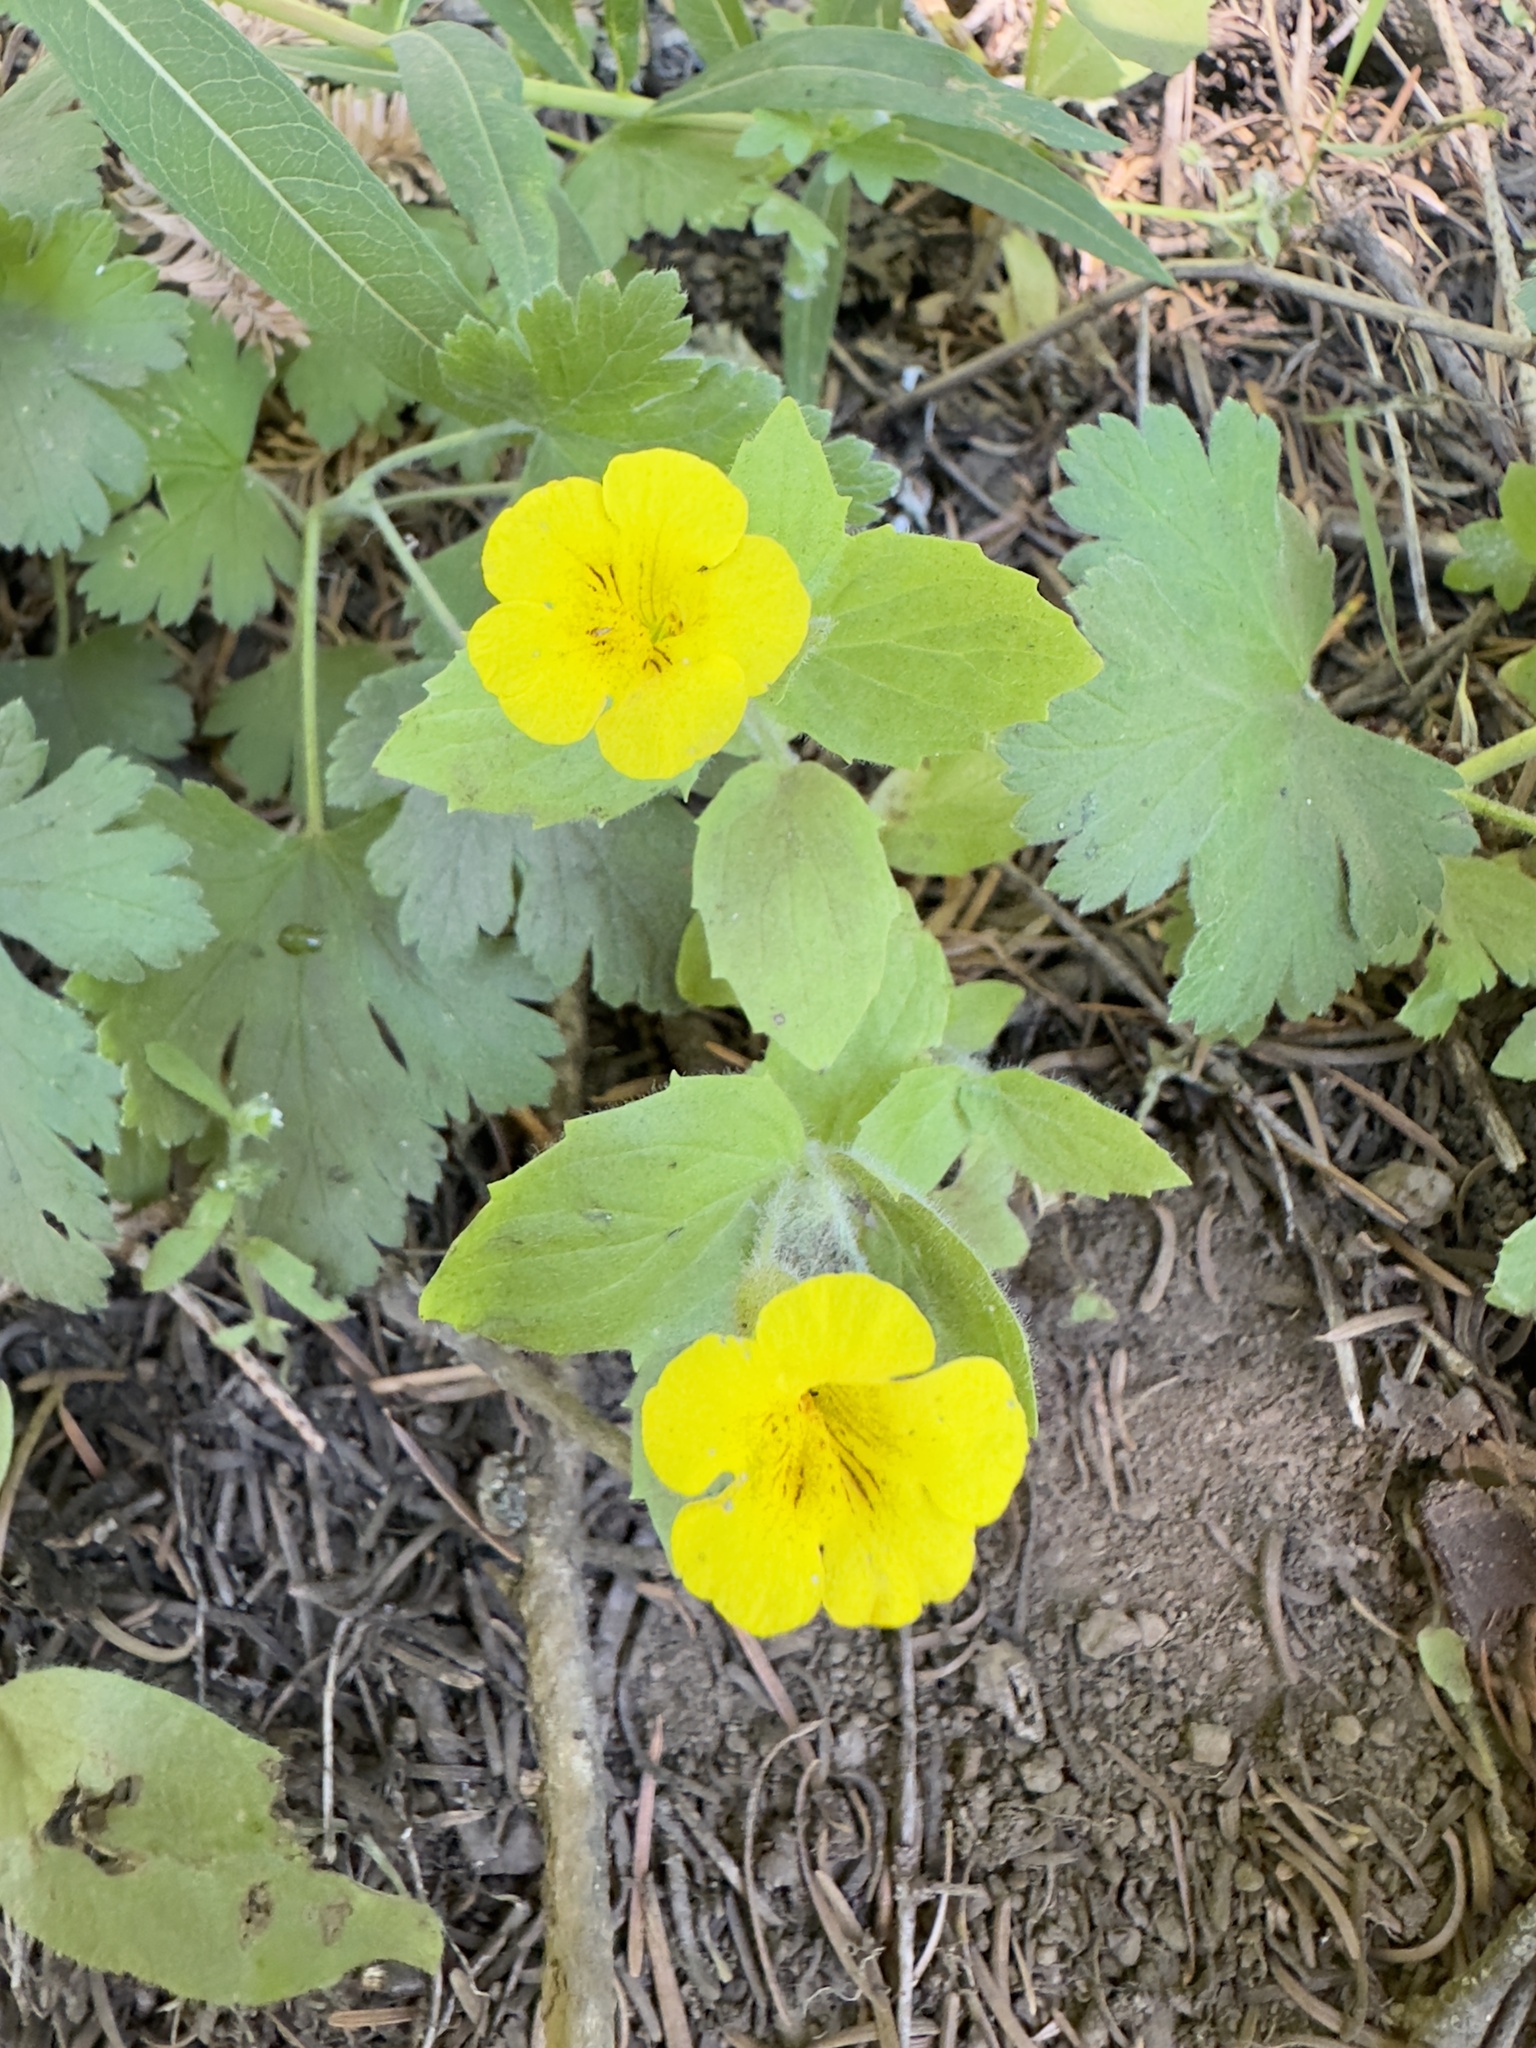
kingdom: Plantae
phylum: Tracheophyta
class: Magnoliopsida
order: Lamiales
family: Phrymaceae
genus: Erythranthe
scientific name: Erythranthe moschata
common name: Muskflower
